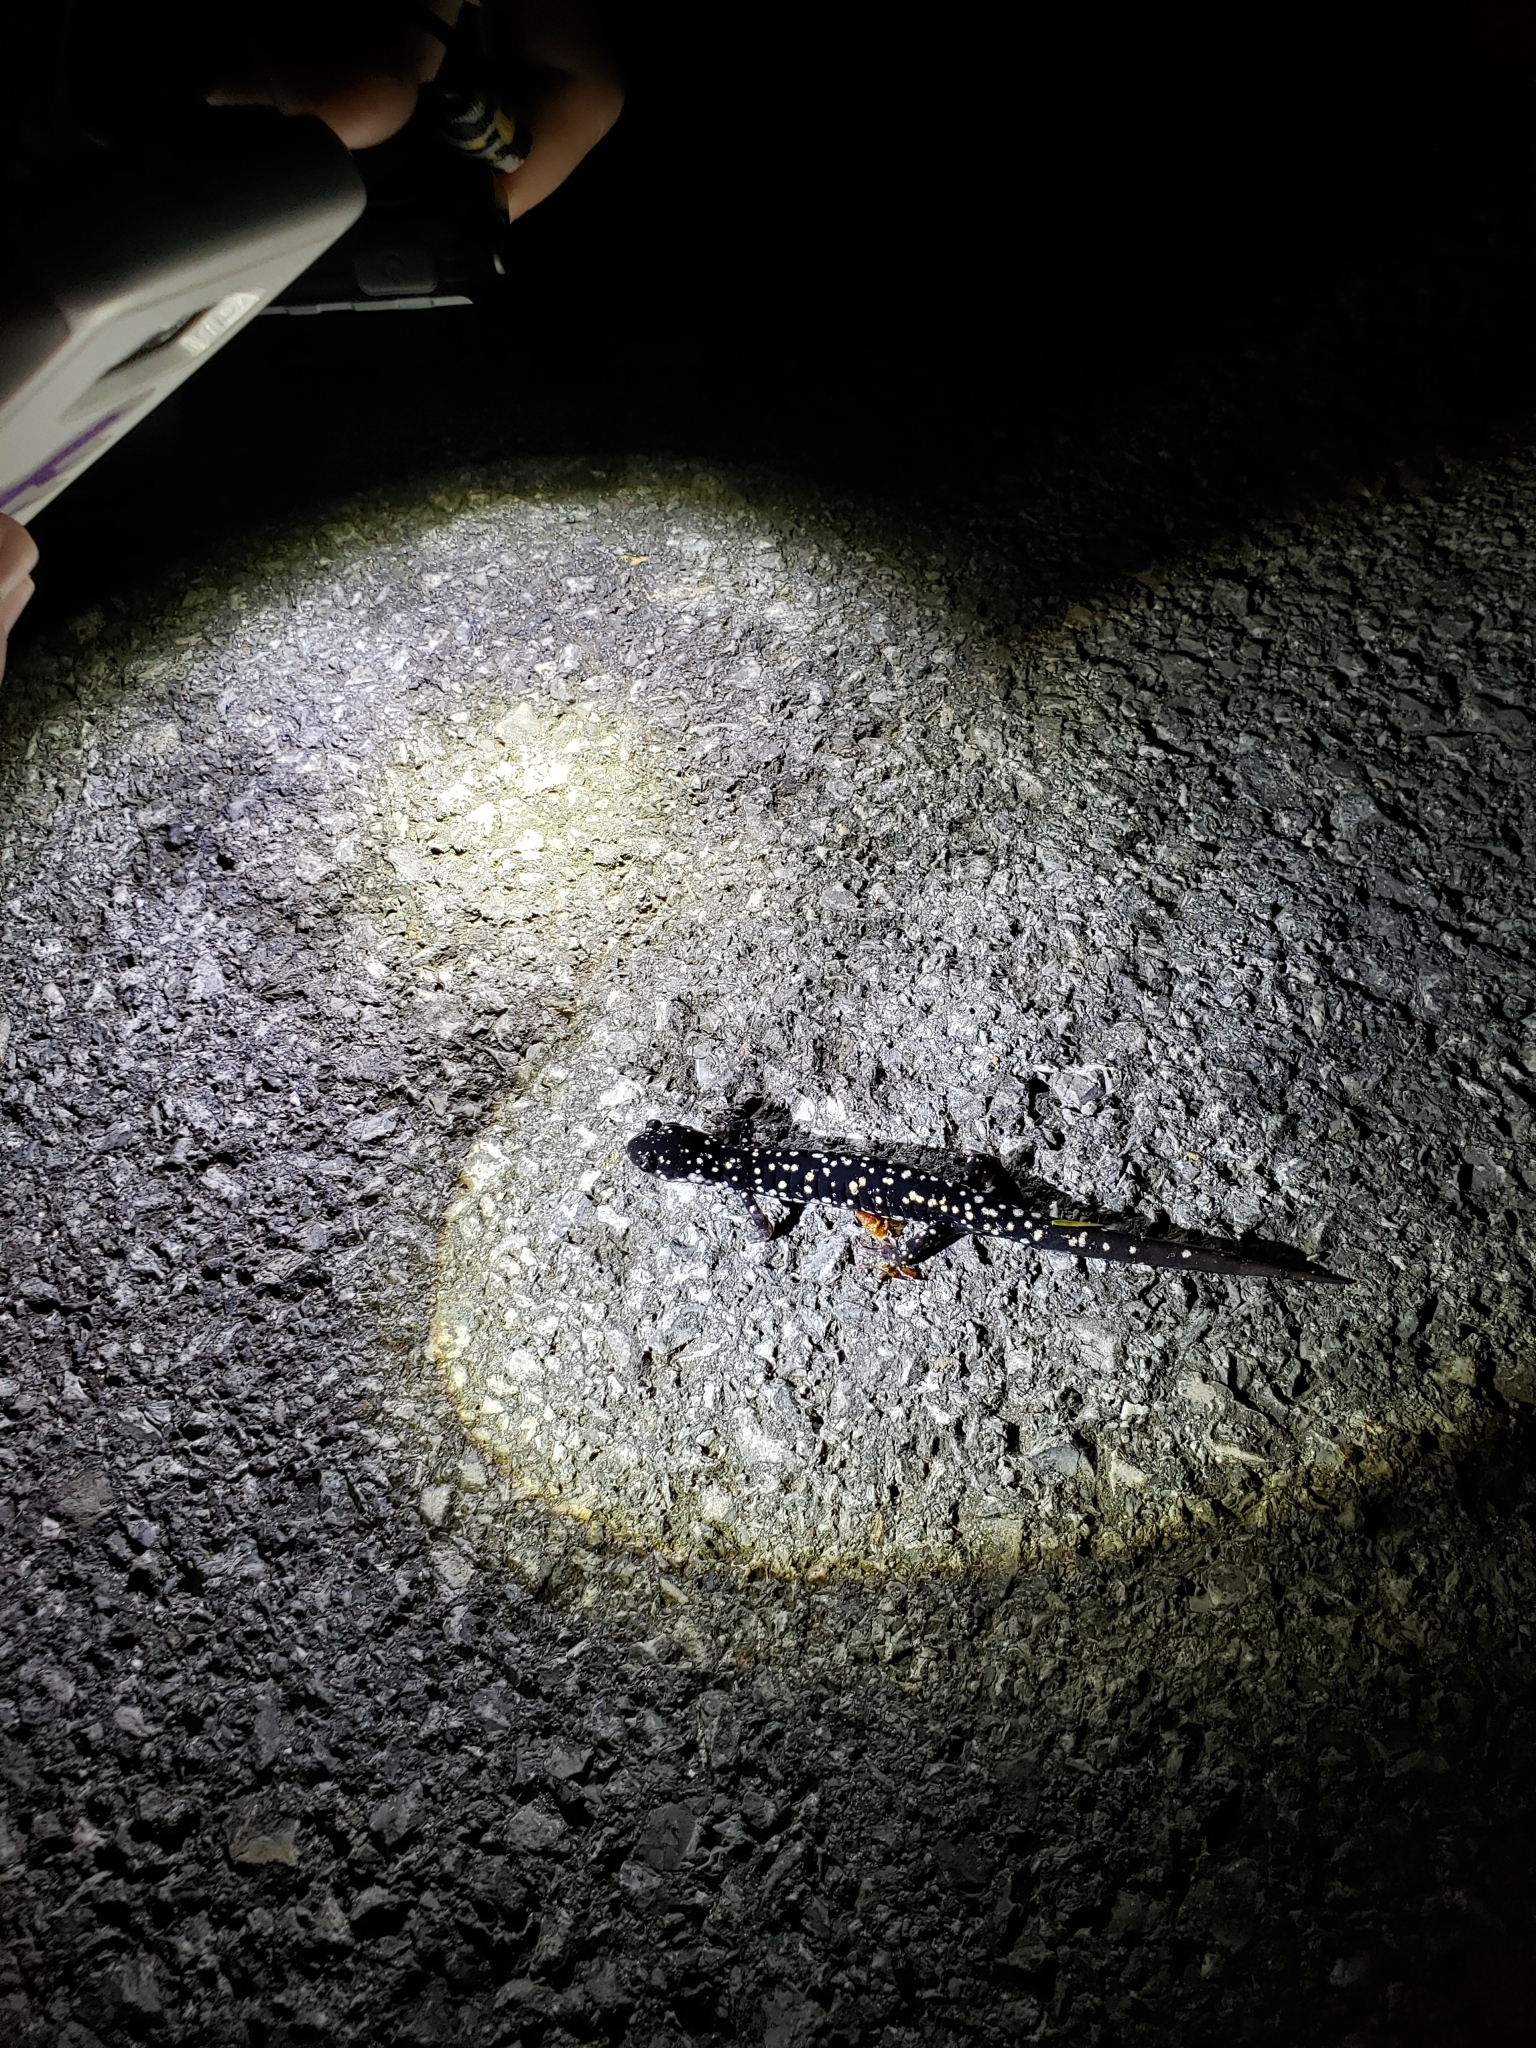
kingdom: Animalia
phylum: Chordata
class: Amphibia
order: Caudata
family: Plethodontidae
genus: Plethodon
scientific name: Plethodon glutinosus
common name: Northern slimy salamander
